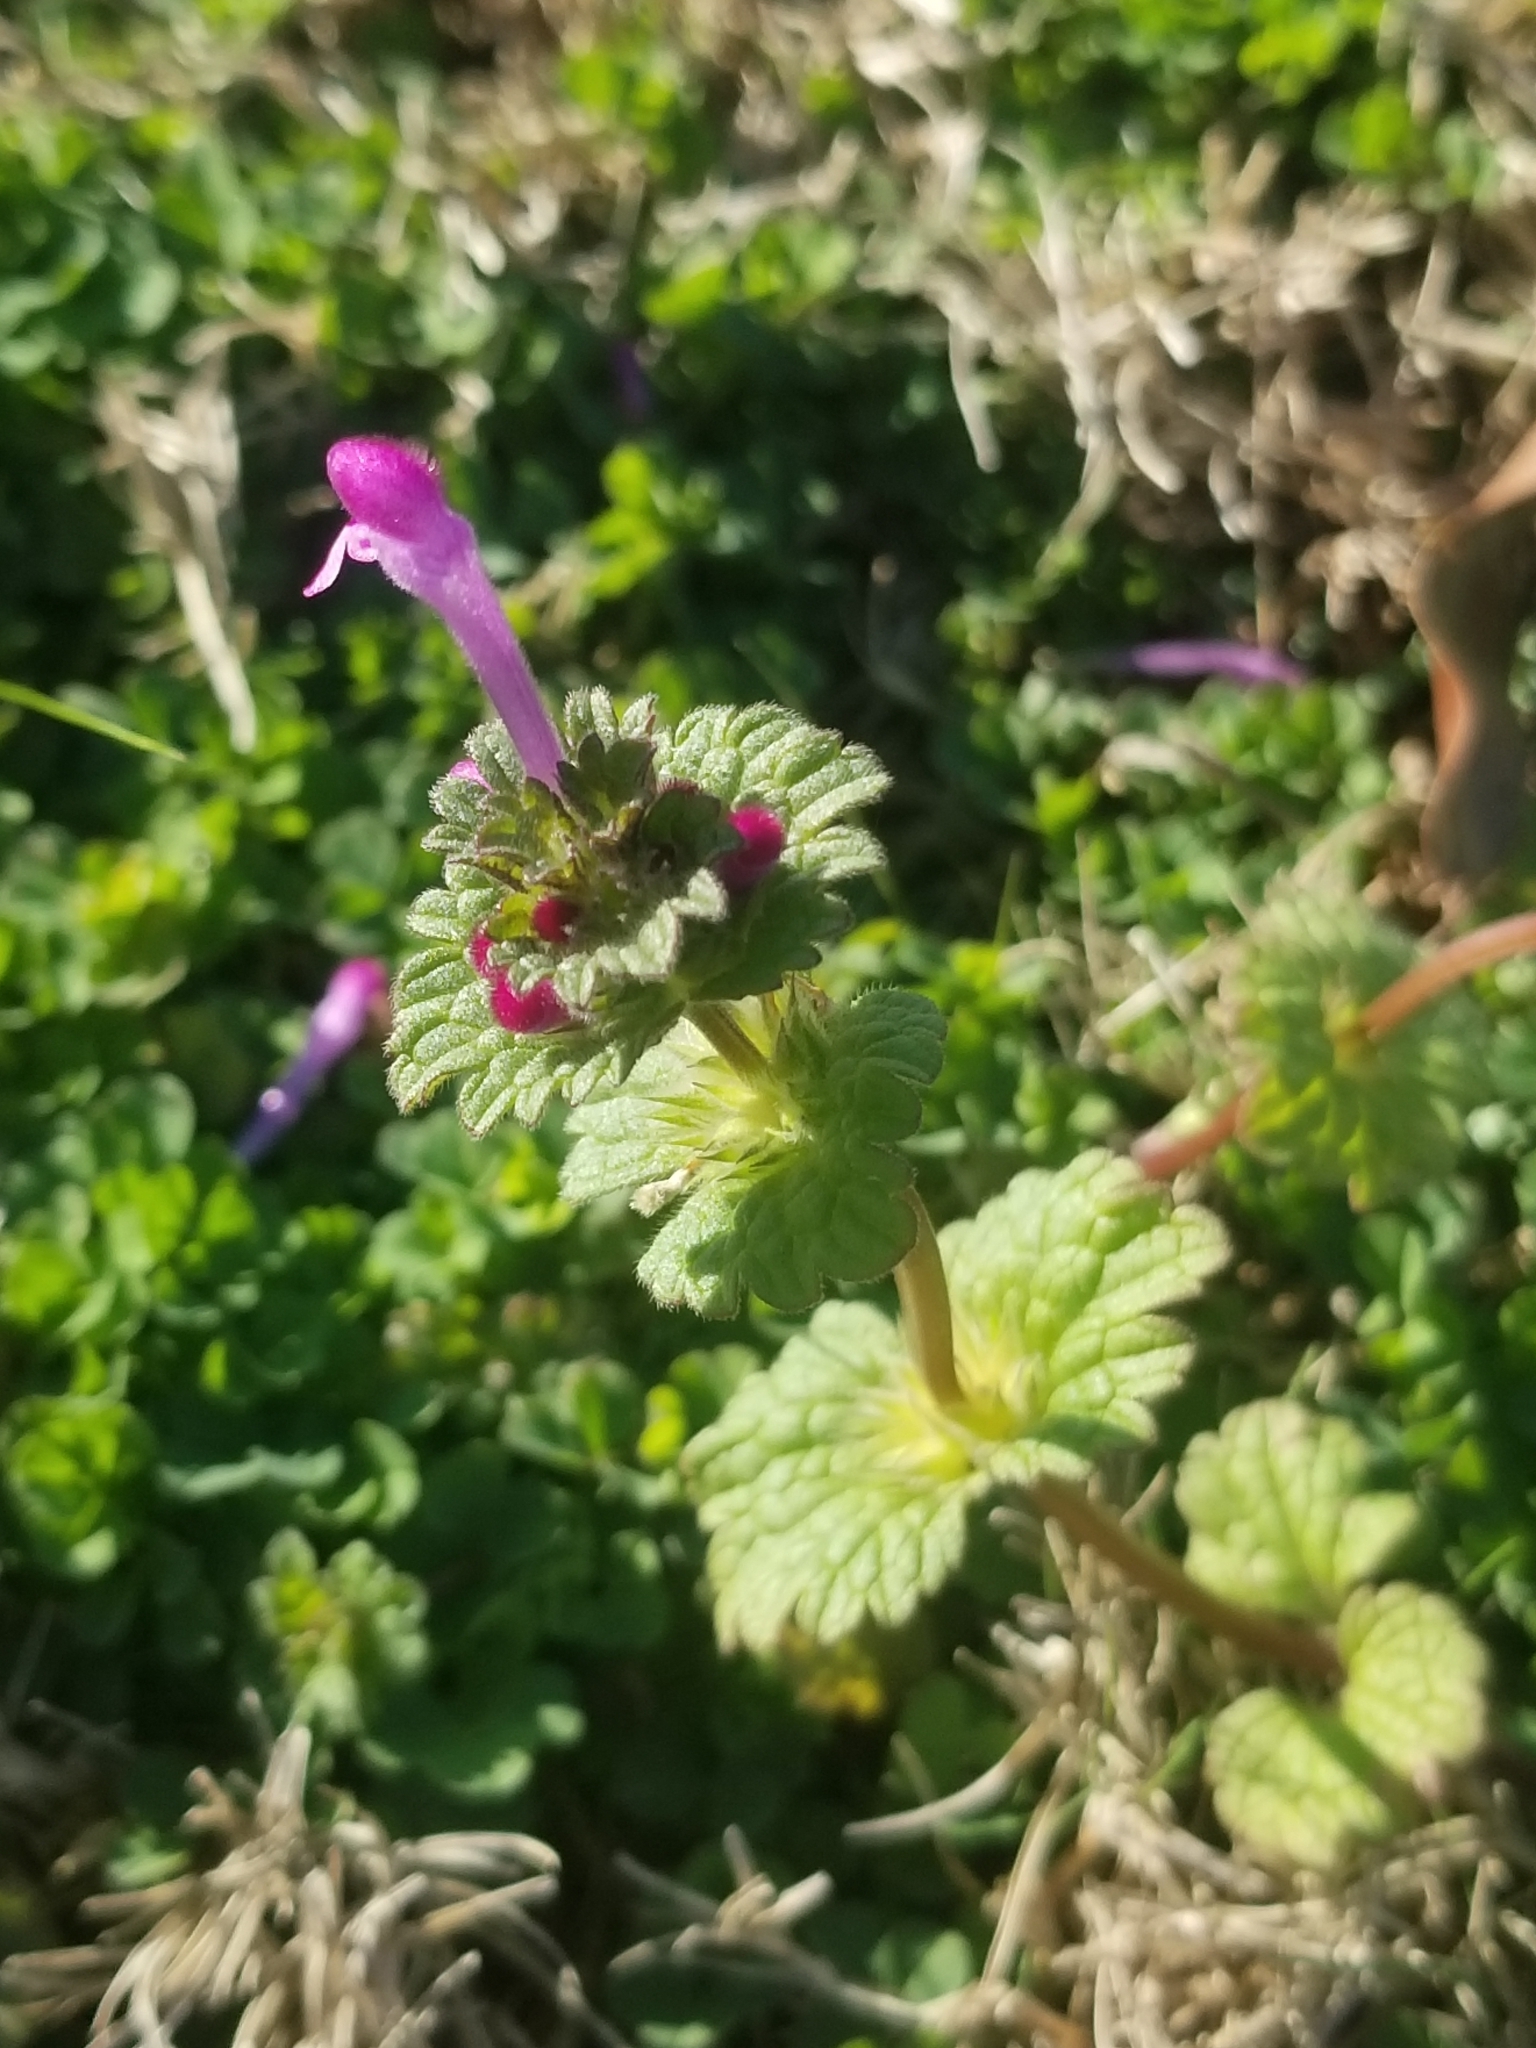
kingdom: Plantae
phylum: Tracheophyta
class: Magnoliopsida
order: Lamiales
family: Lamiaceae
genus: Lamium
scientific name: Lamium amplexicaule
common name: Henbit dead-nettle
